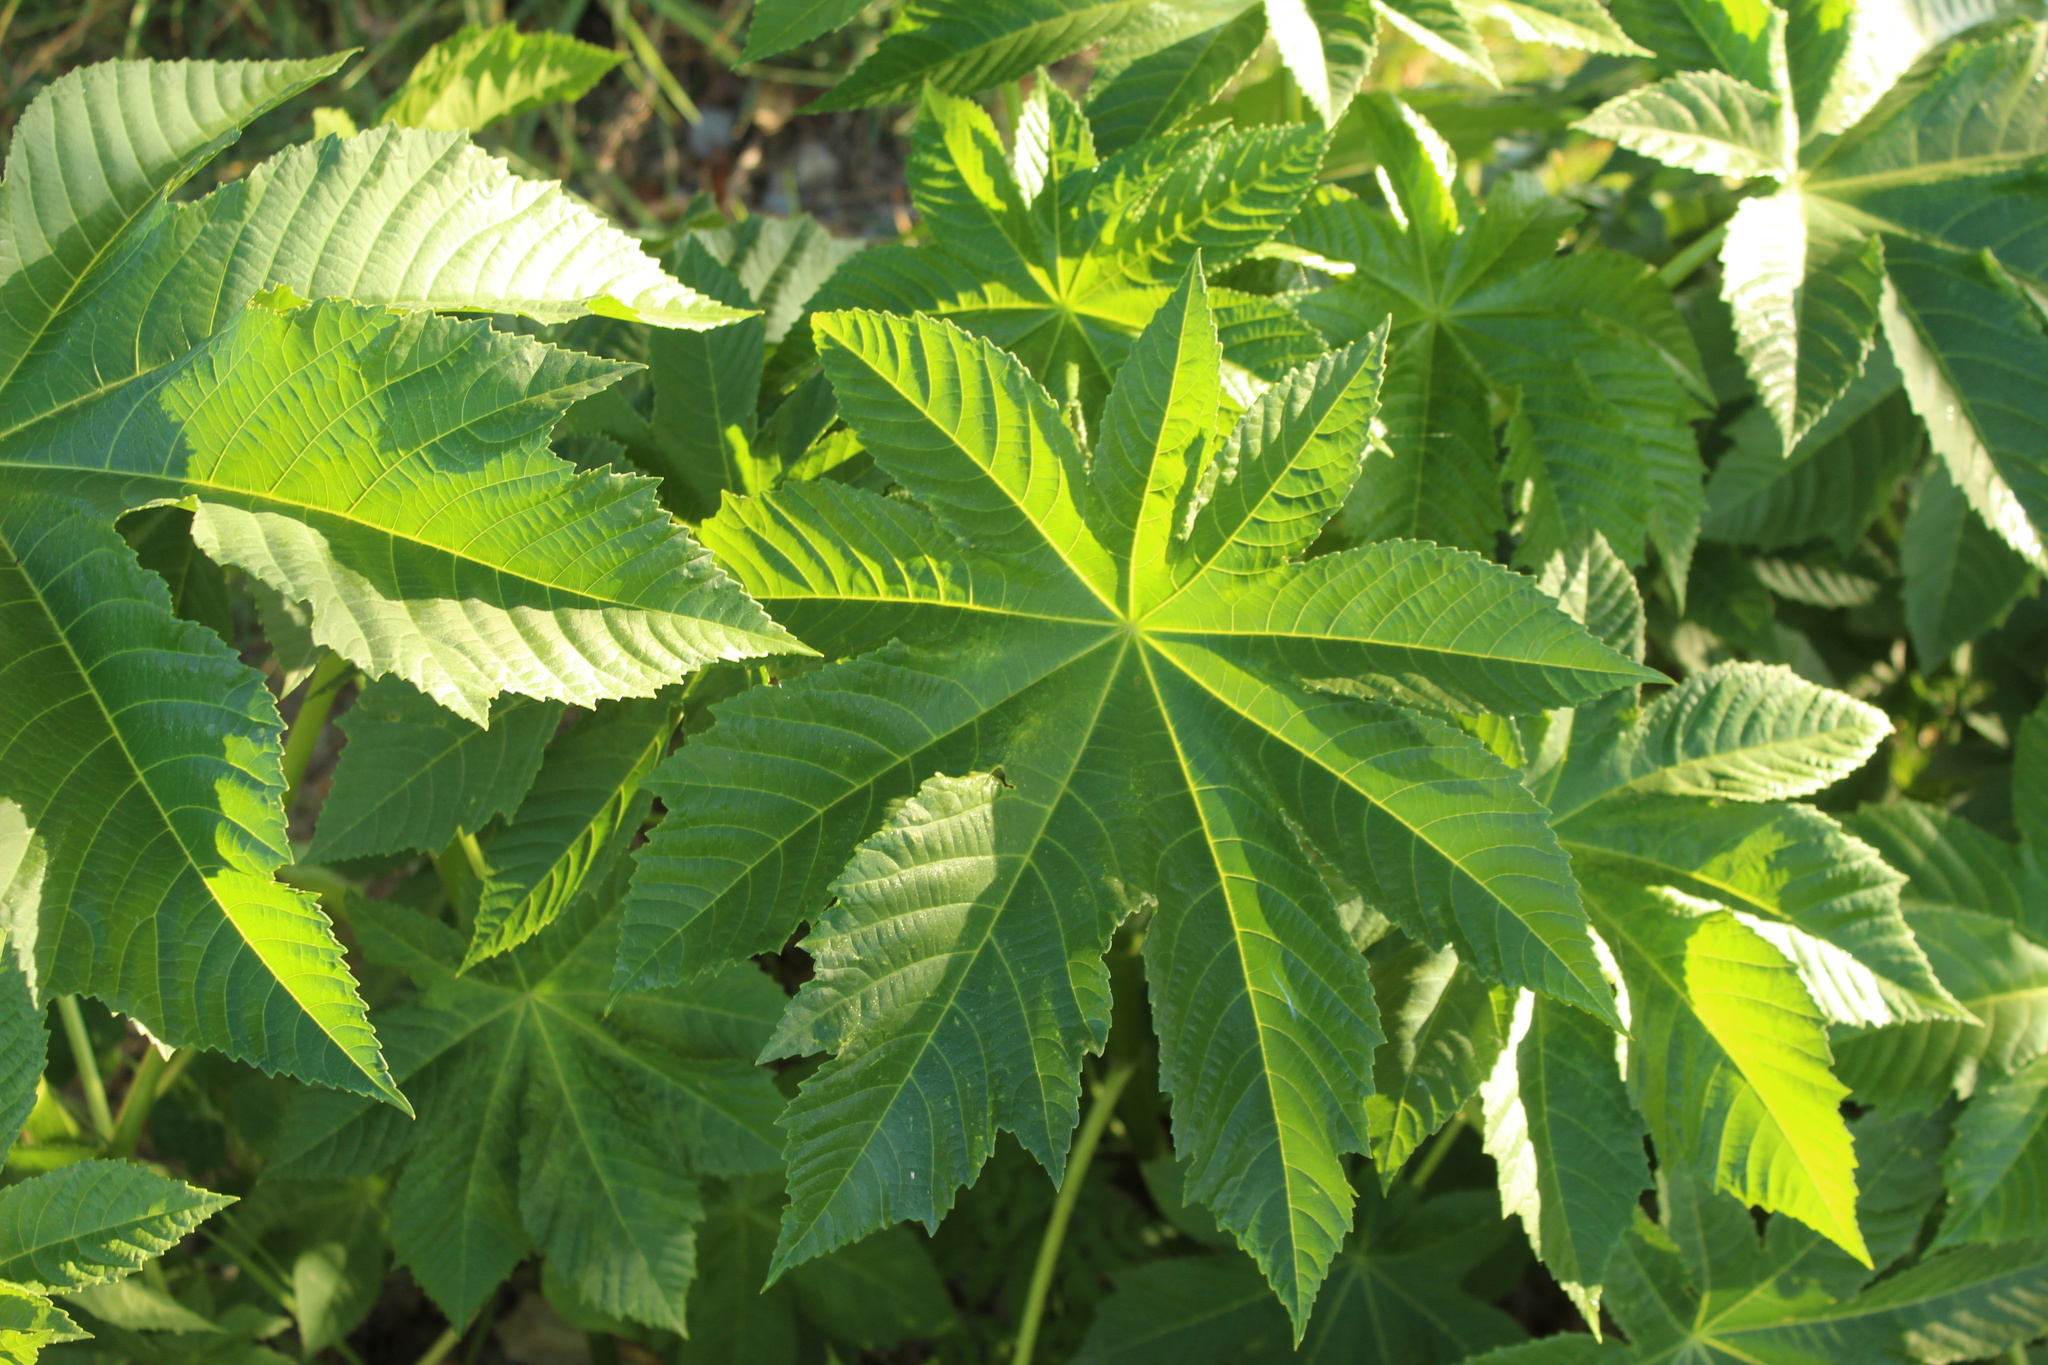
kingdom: Plantae
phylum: Tracheophyta
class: Magnoliopsida
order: Malpighiales
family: Euphorbiaceae
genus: Ricinus
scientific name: Ricinus communis
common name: Castor-oil-plant
